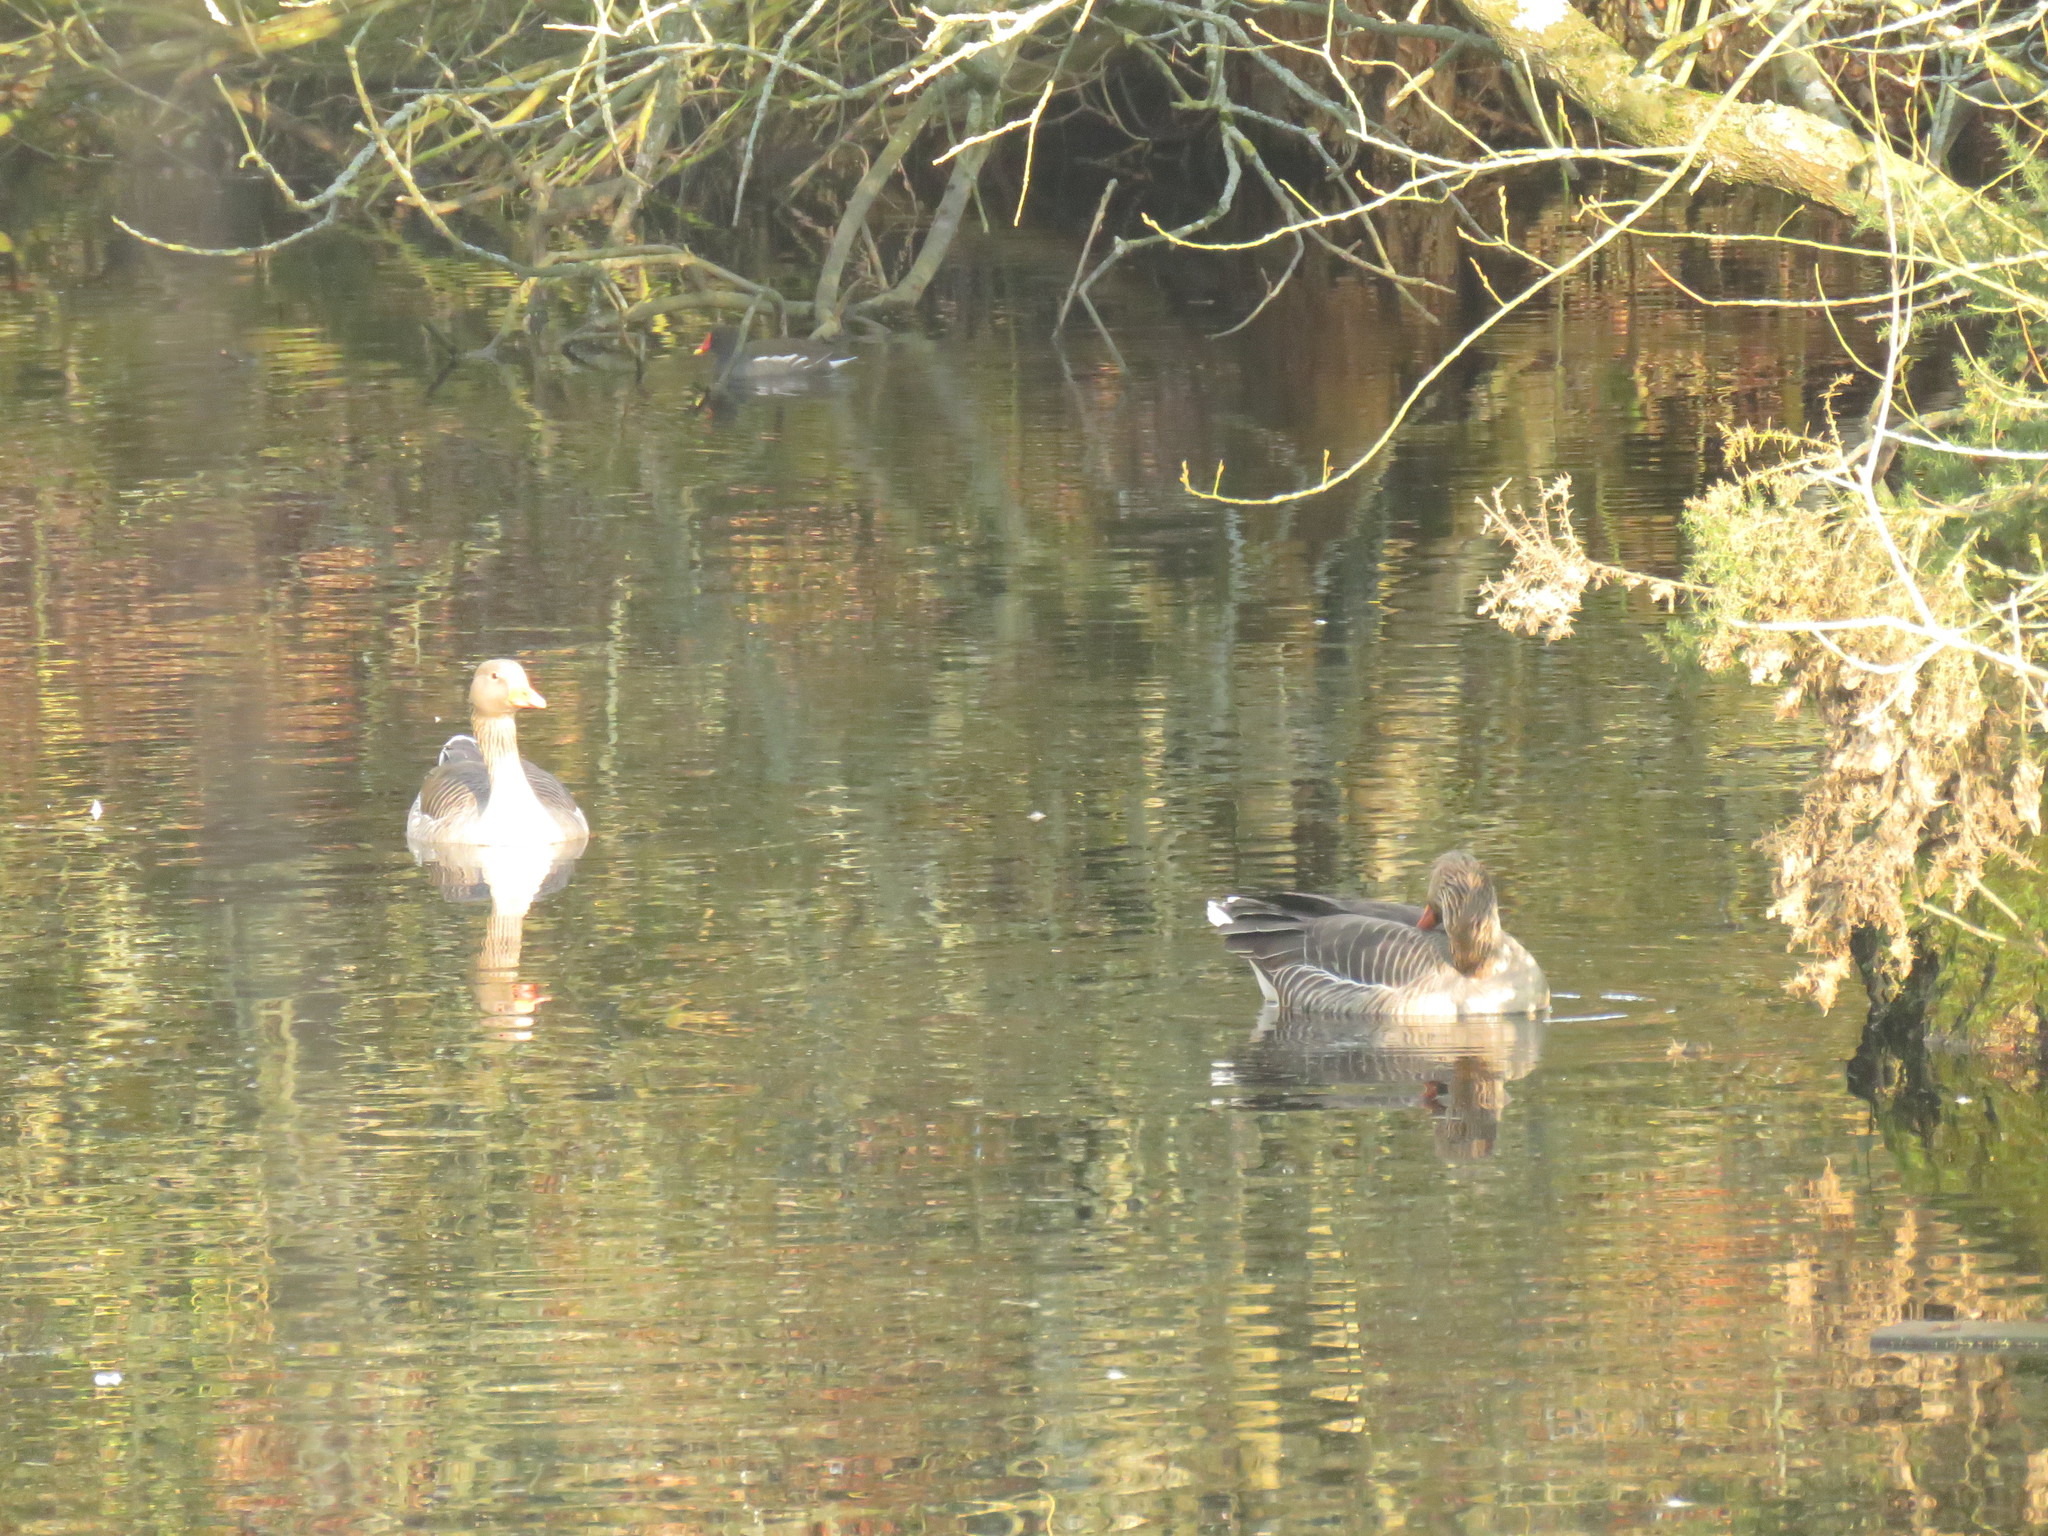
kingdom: Animalia
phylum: Chordata
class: Aves
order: Anseriformes
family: Anatidae
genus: Anser
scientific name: Anser anser
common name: Greylag goose
